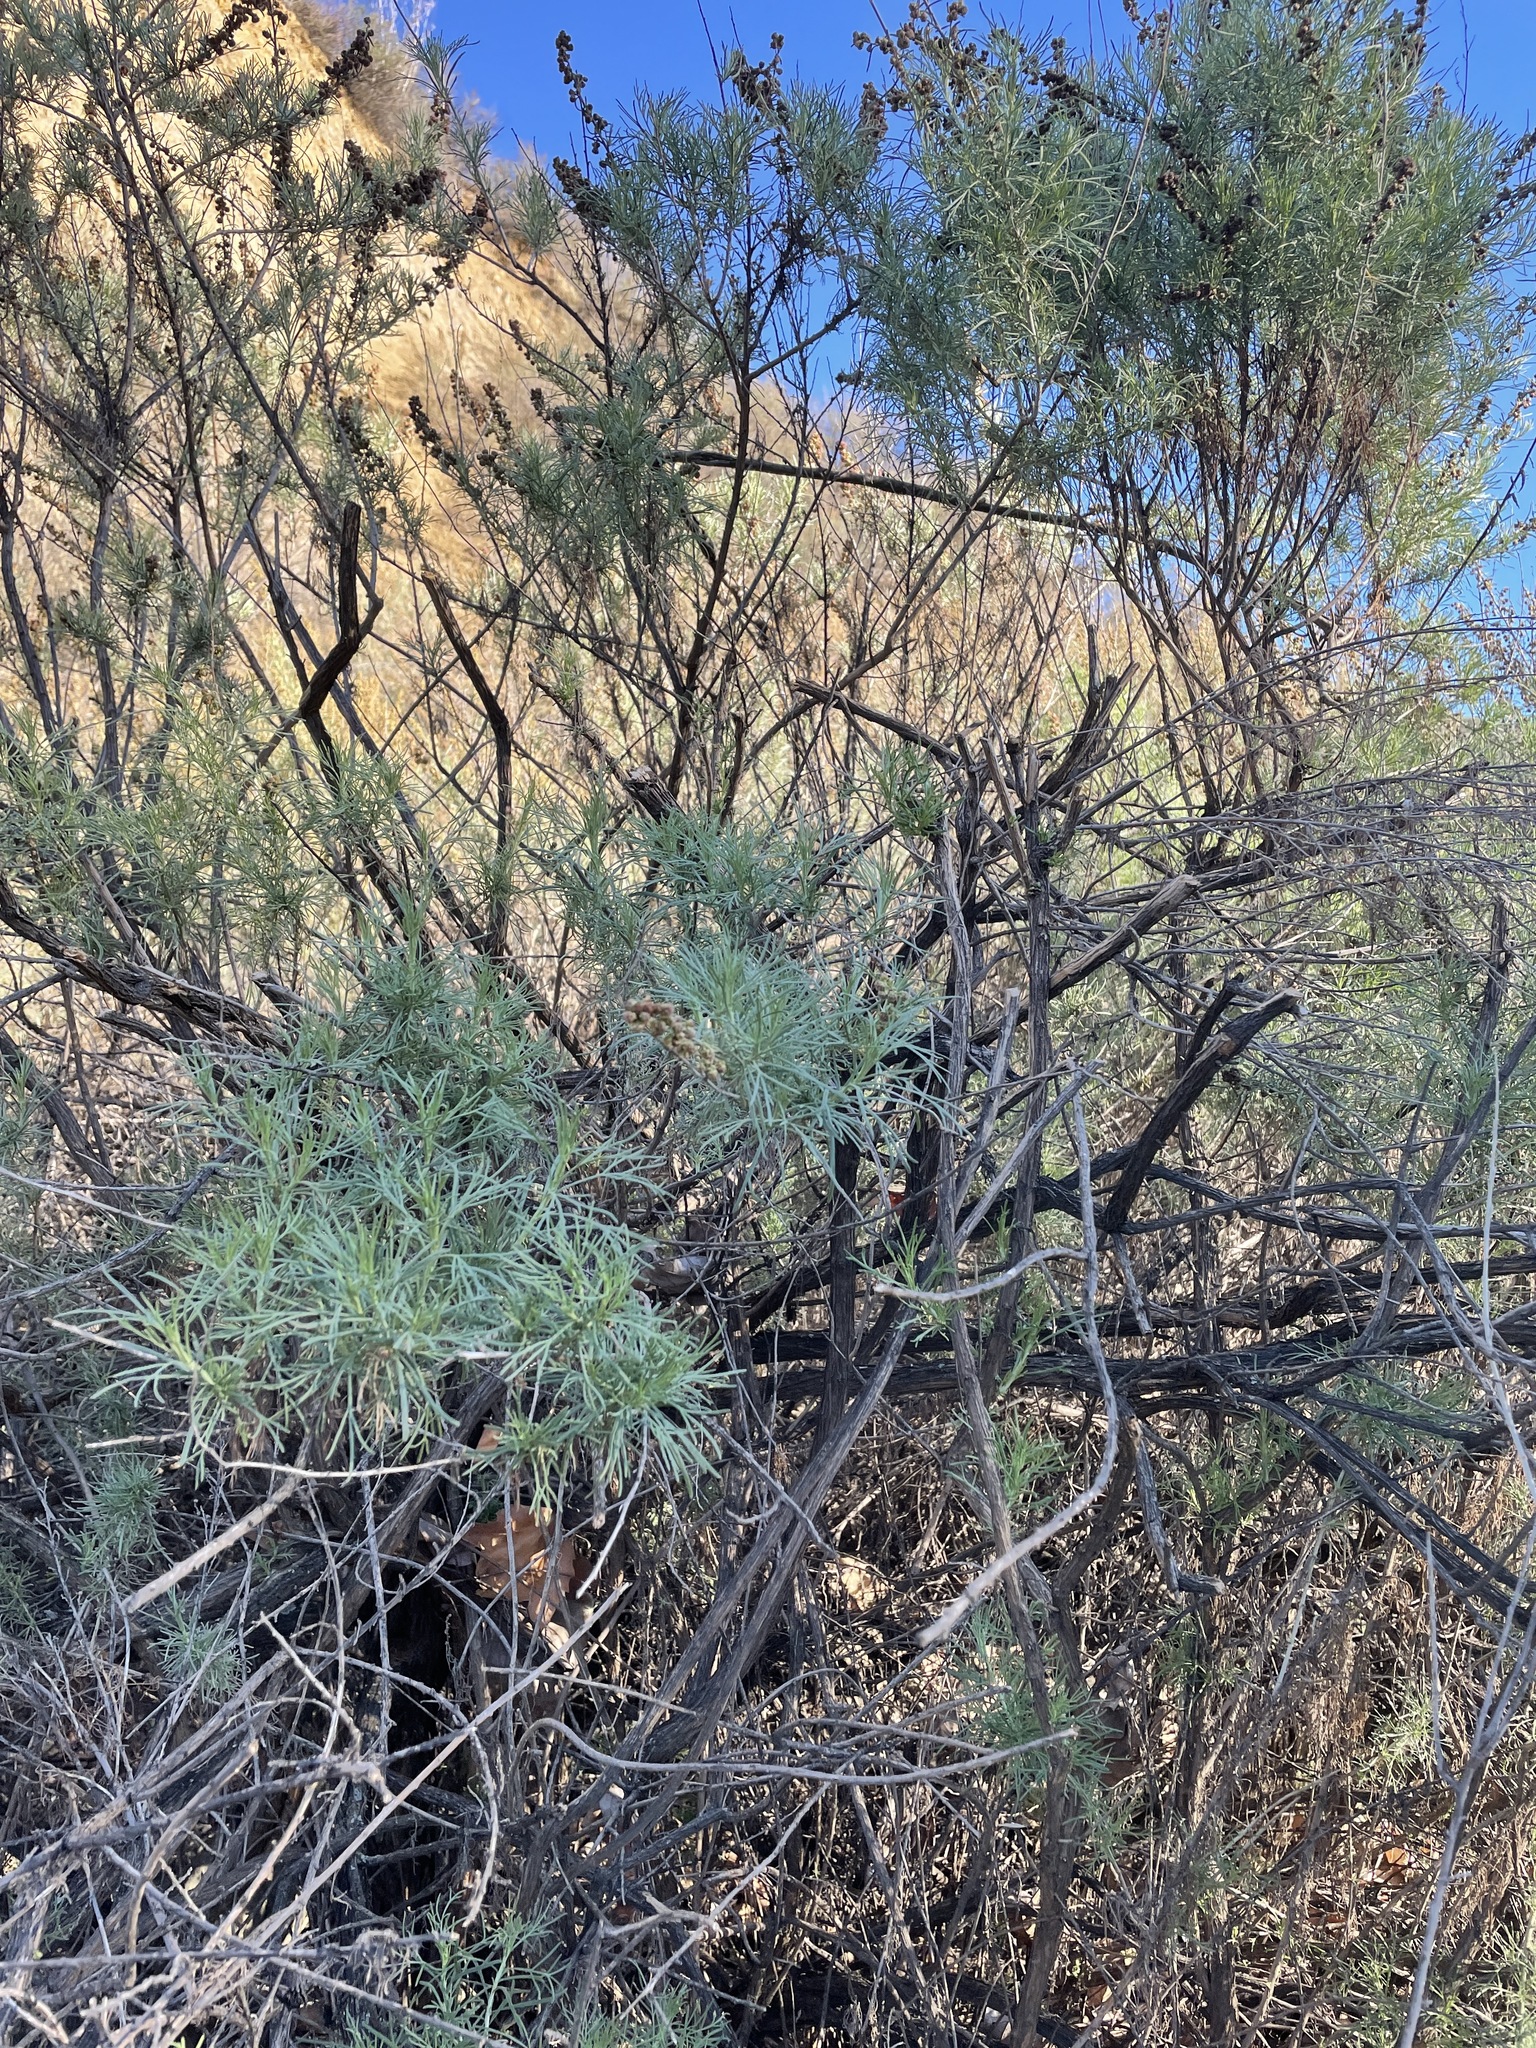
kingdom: Plantae
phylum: Tracheophyta
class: Magnoliopsida
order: Asterales
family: Asteraceae
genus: Artemisia
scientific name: Artemisia californica
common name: California sagebrush
